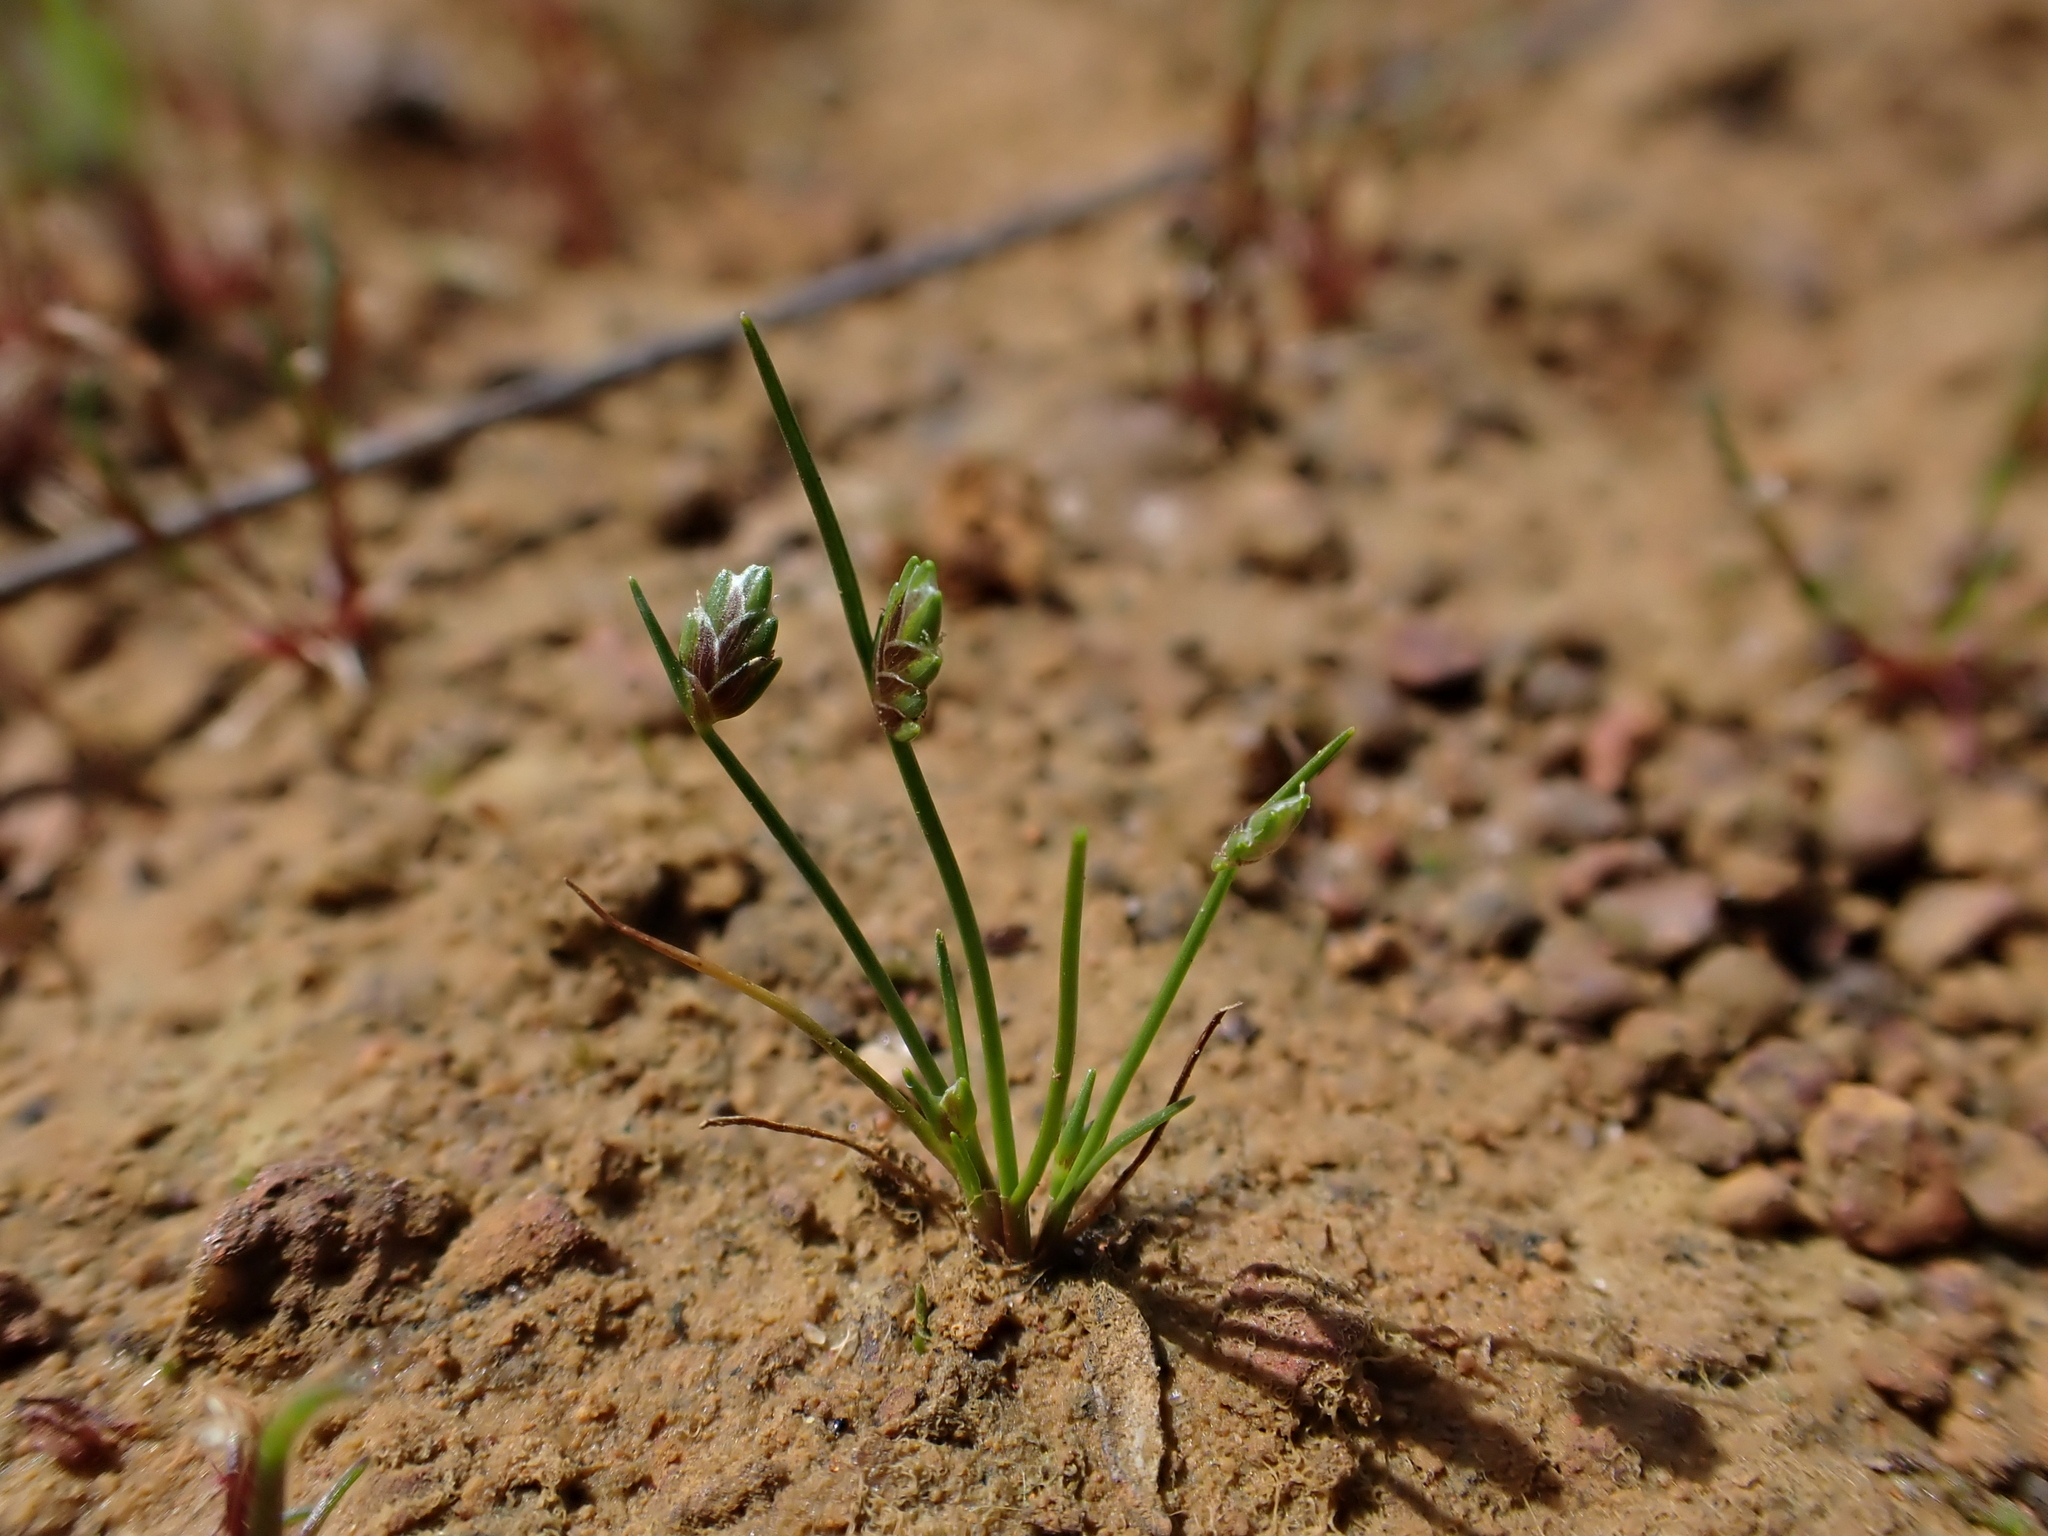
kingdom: Plantae
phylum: Tracheophyta
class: Liliopsida
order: Poales
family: Cyperaceae
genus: Isolepis
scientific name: Isolepis levynsiana
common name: Sedge
